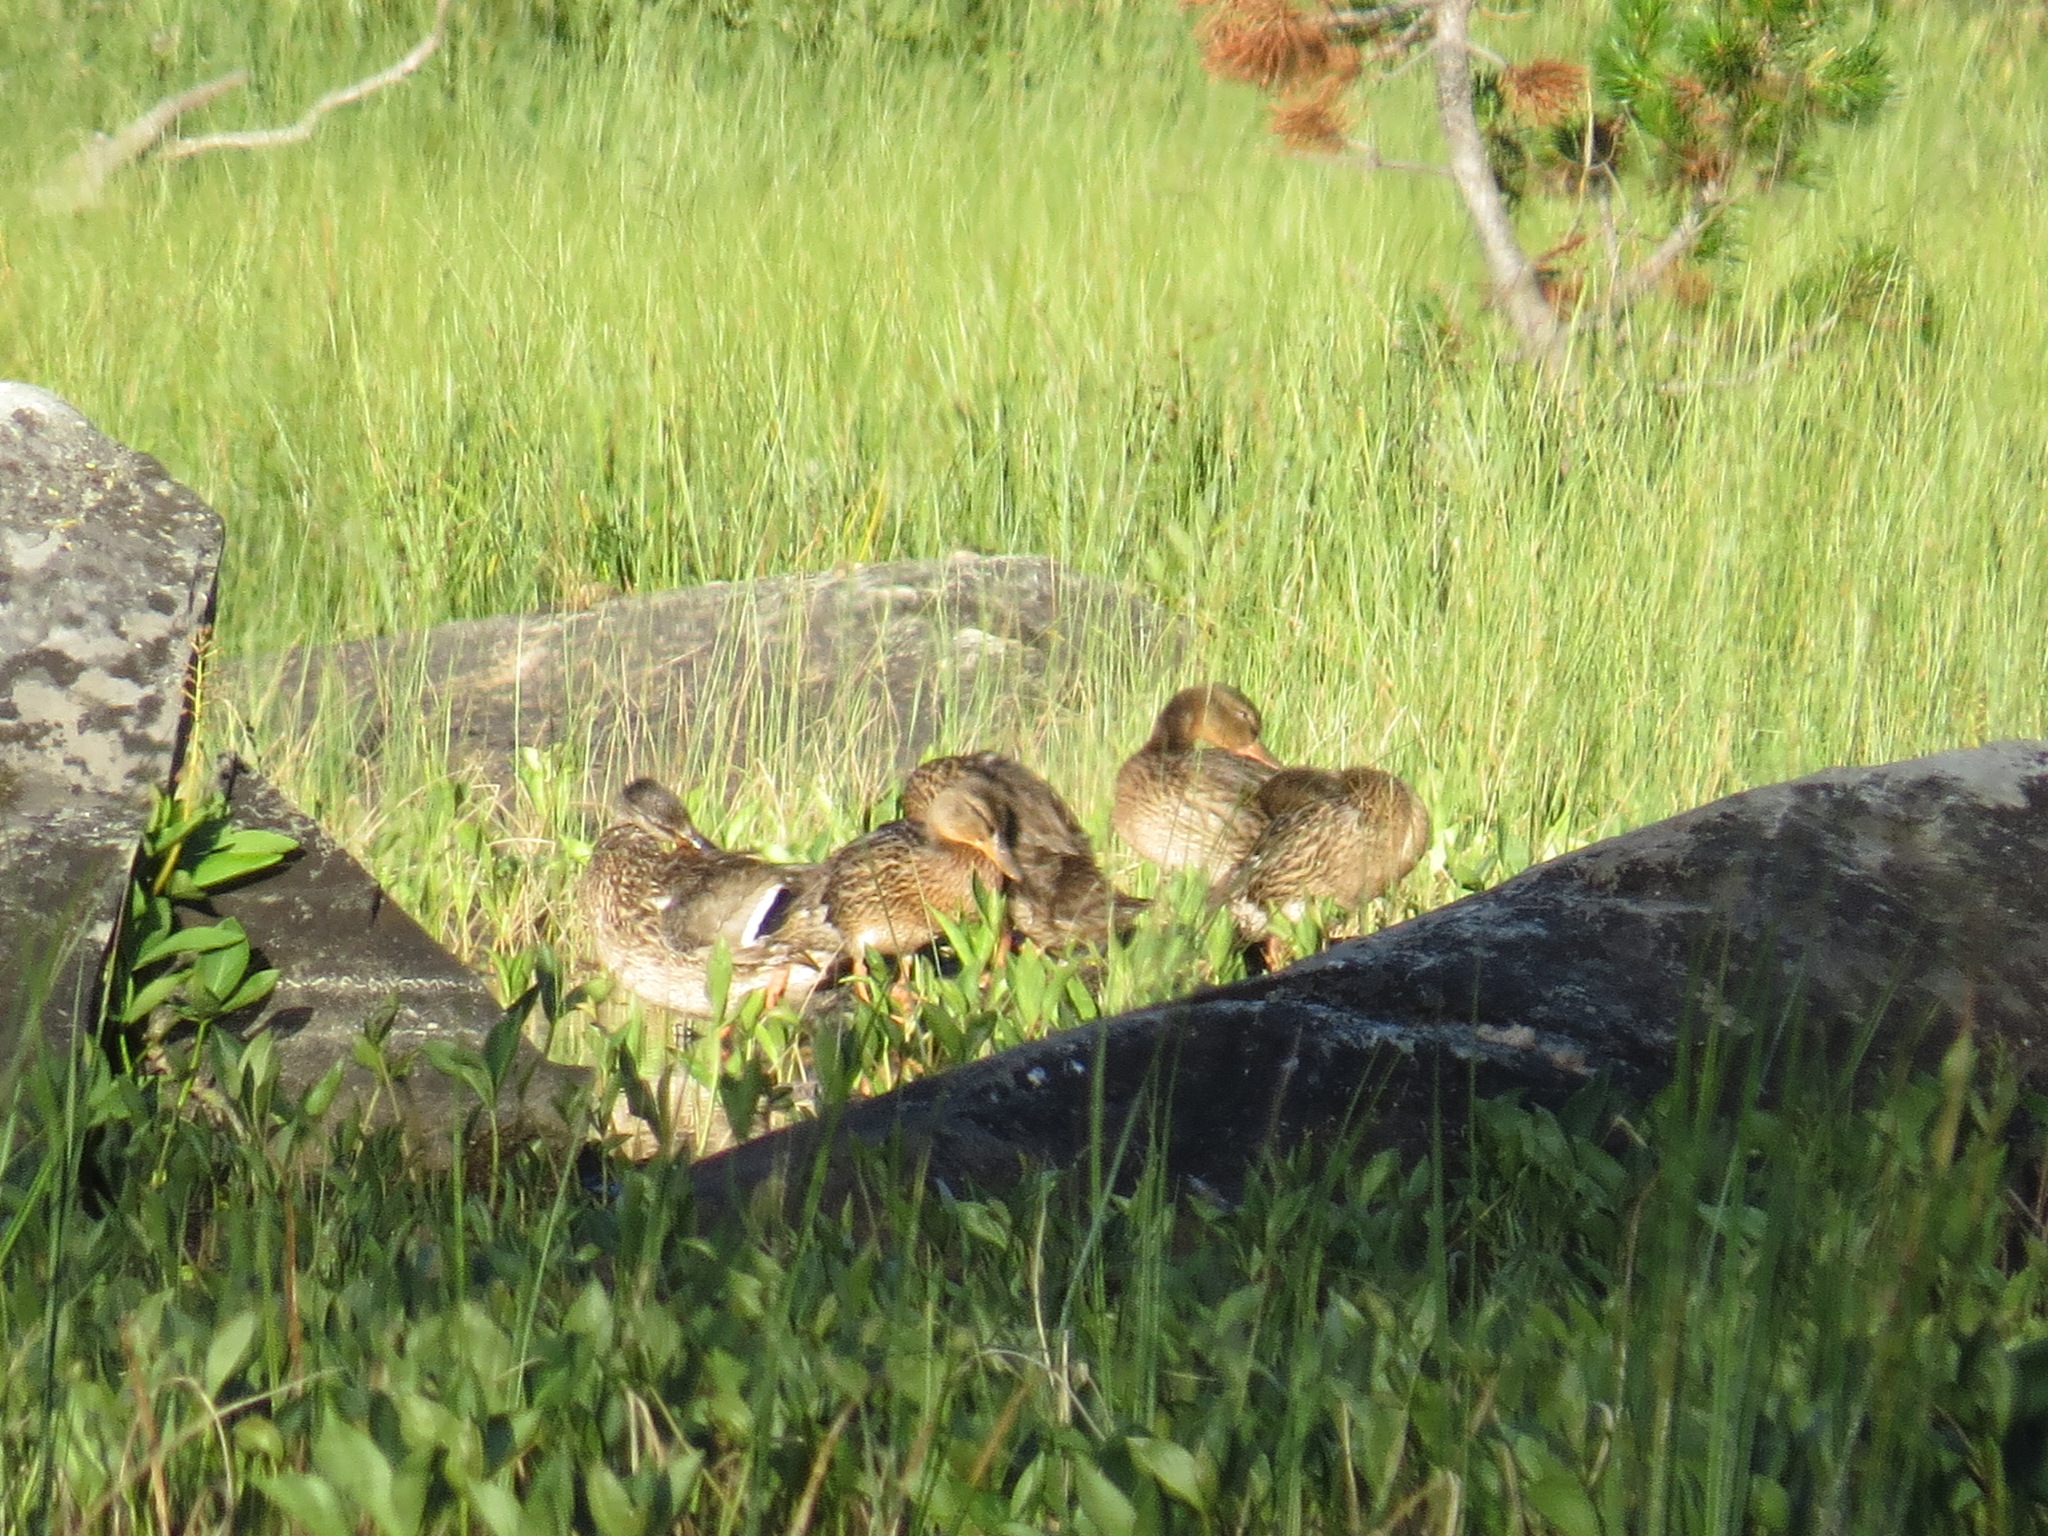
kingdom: Animalia
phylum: Chordata
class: Aves
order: Anseriformes
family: Anatidae
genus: Anas
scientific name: Anas platyrhynchos
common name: Mallard
